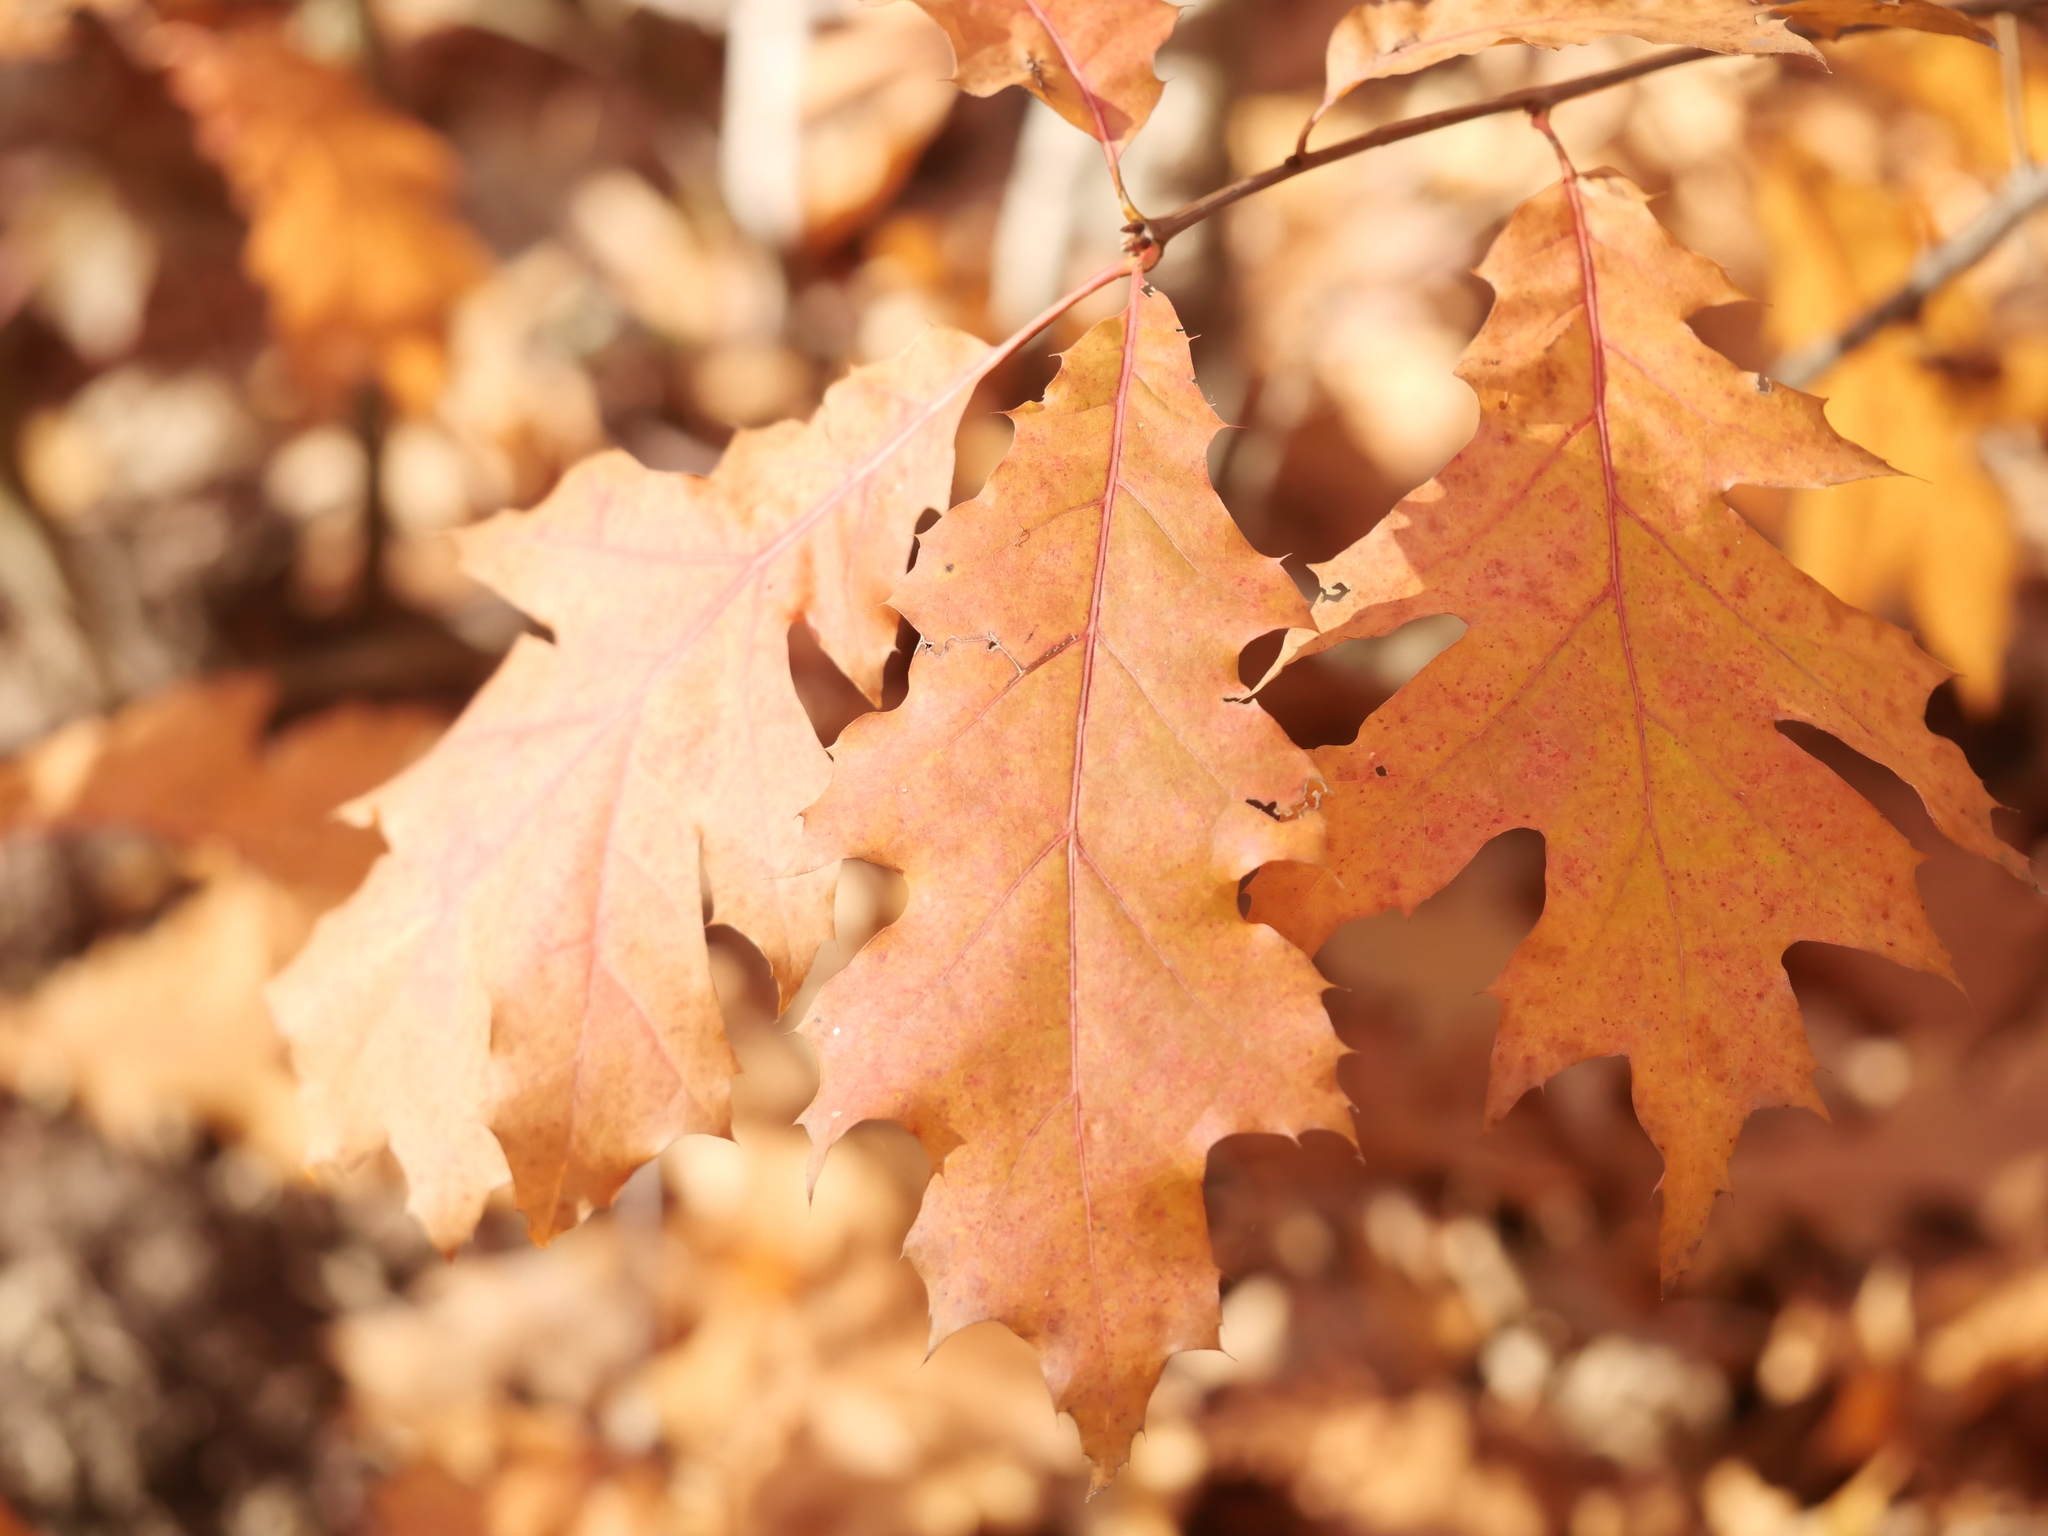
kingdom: Plantae
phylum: Tracheophyta
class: Magnoliopsida
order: Fagales
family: Fagaceae
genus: Quercus
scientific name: Quercus rubra
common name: Red oak
